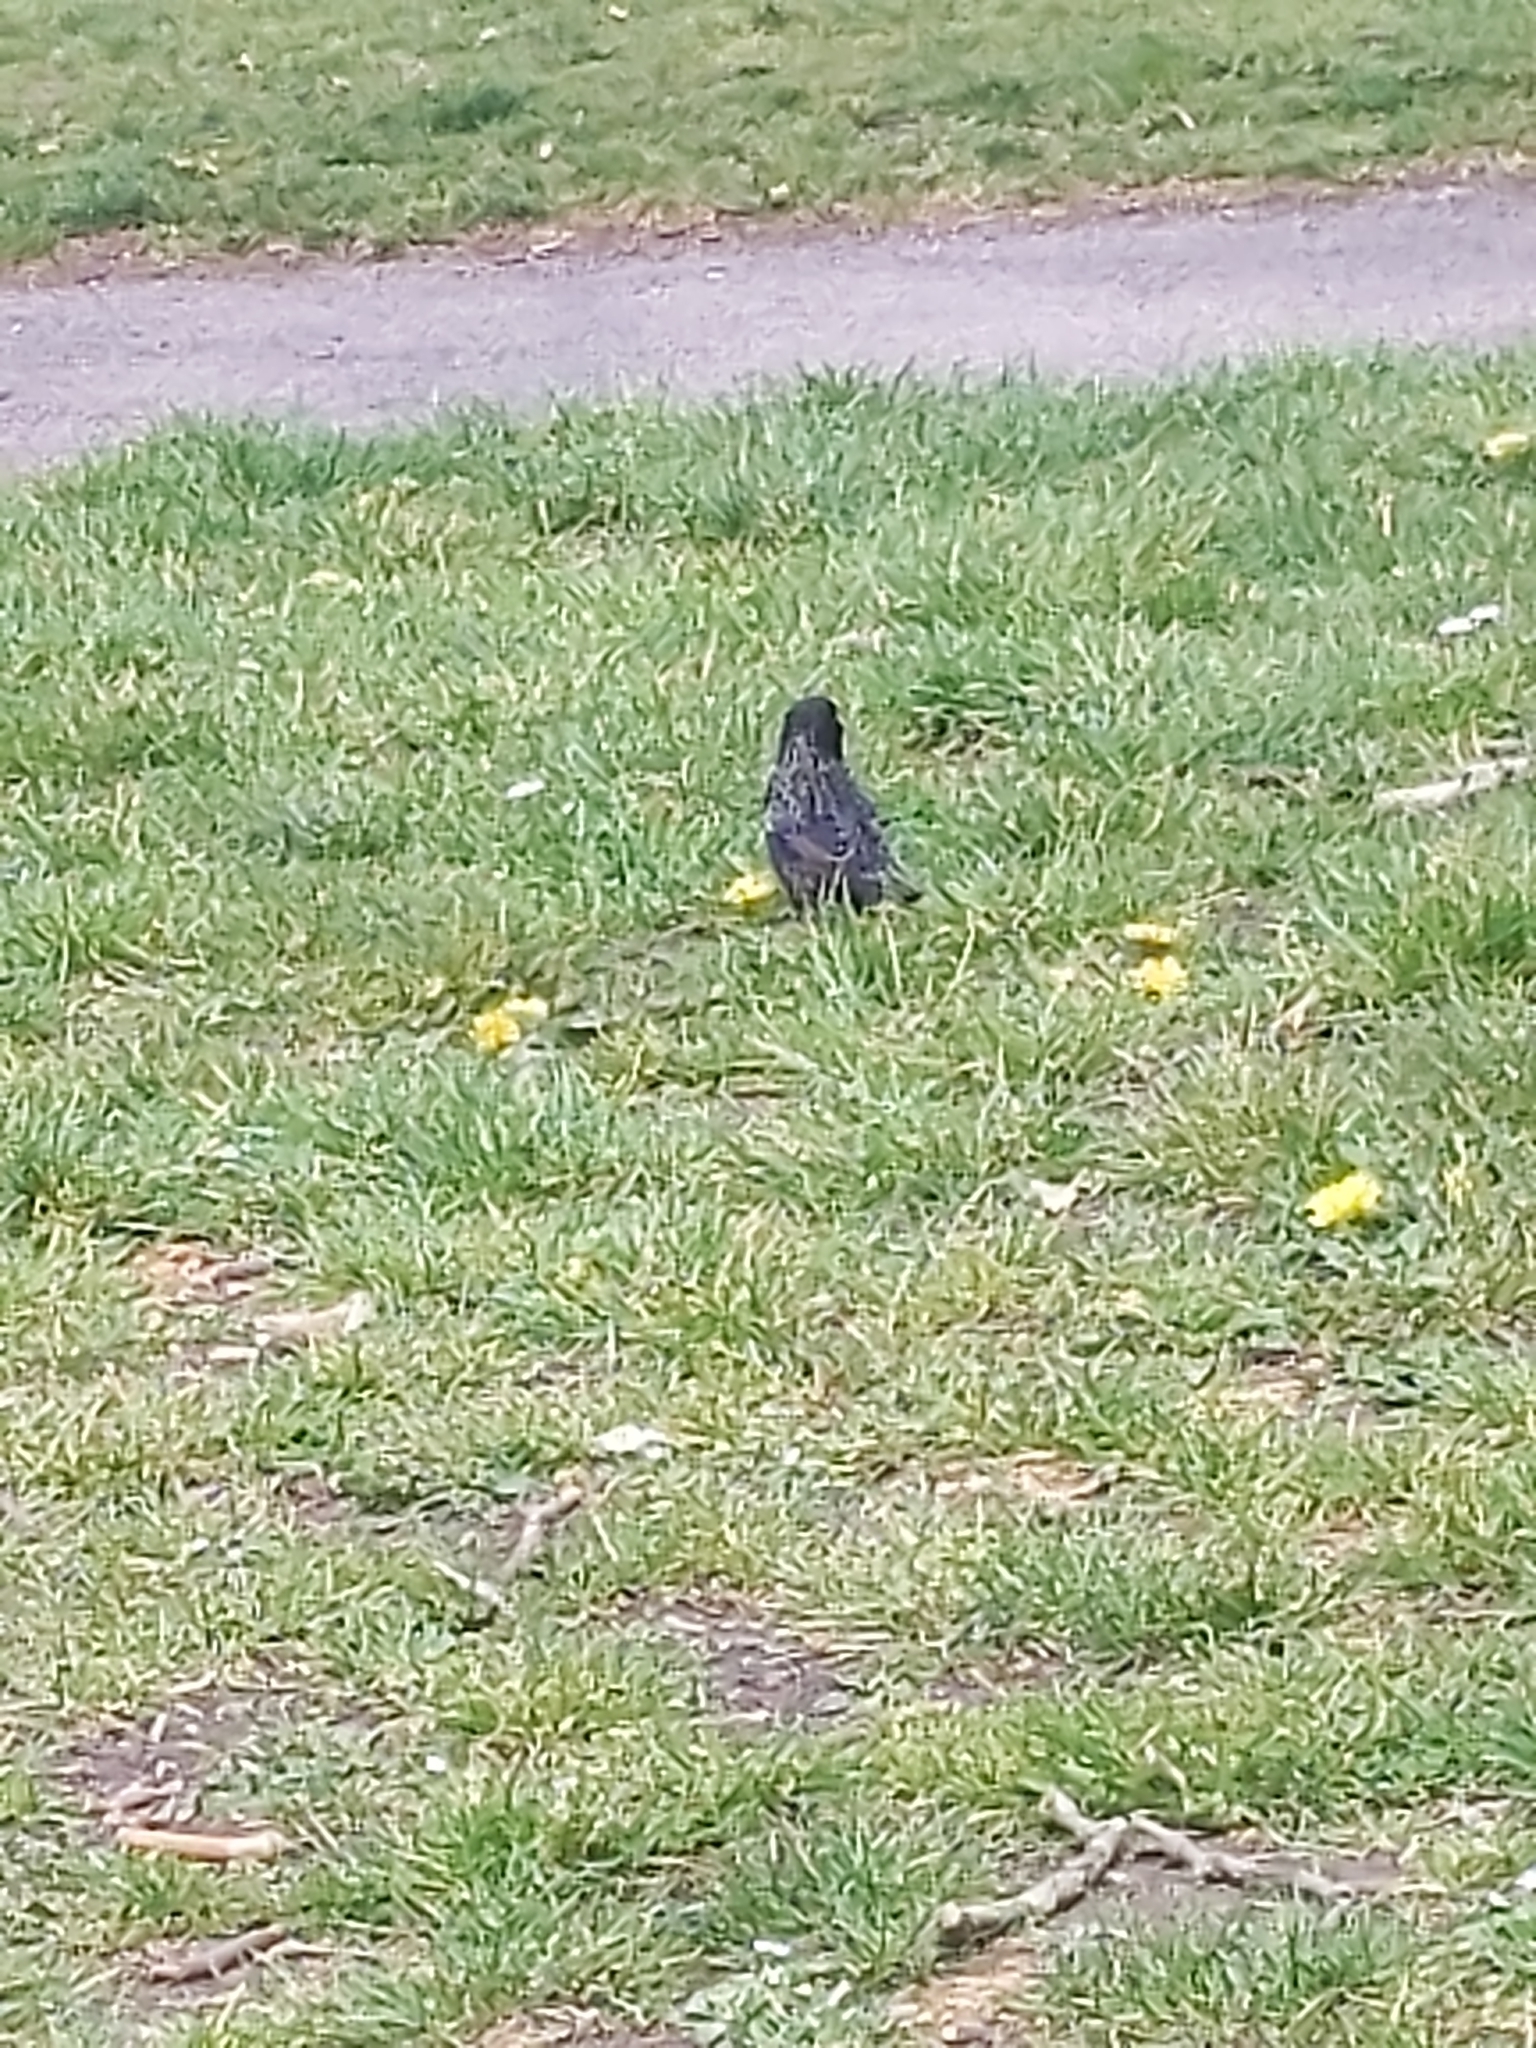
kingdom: Animalia
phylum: Chordata
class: Aves
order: Passeriformes
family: Sturnidae
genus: Sturnus
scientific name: Sturnus vulgaris
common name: Common starling
